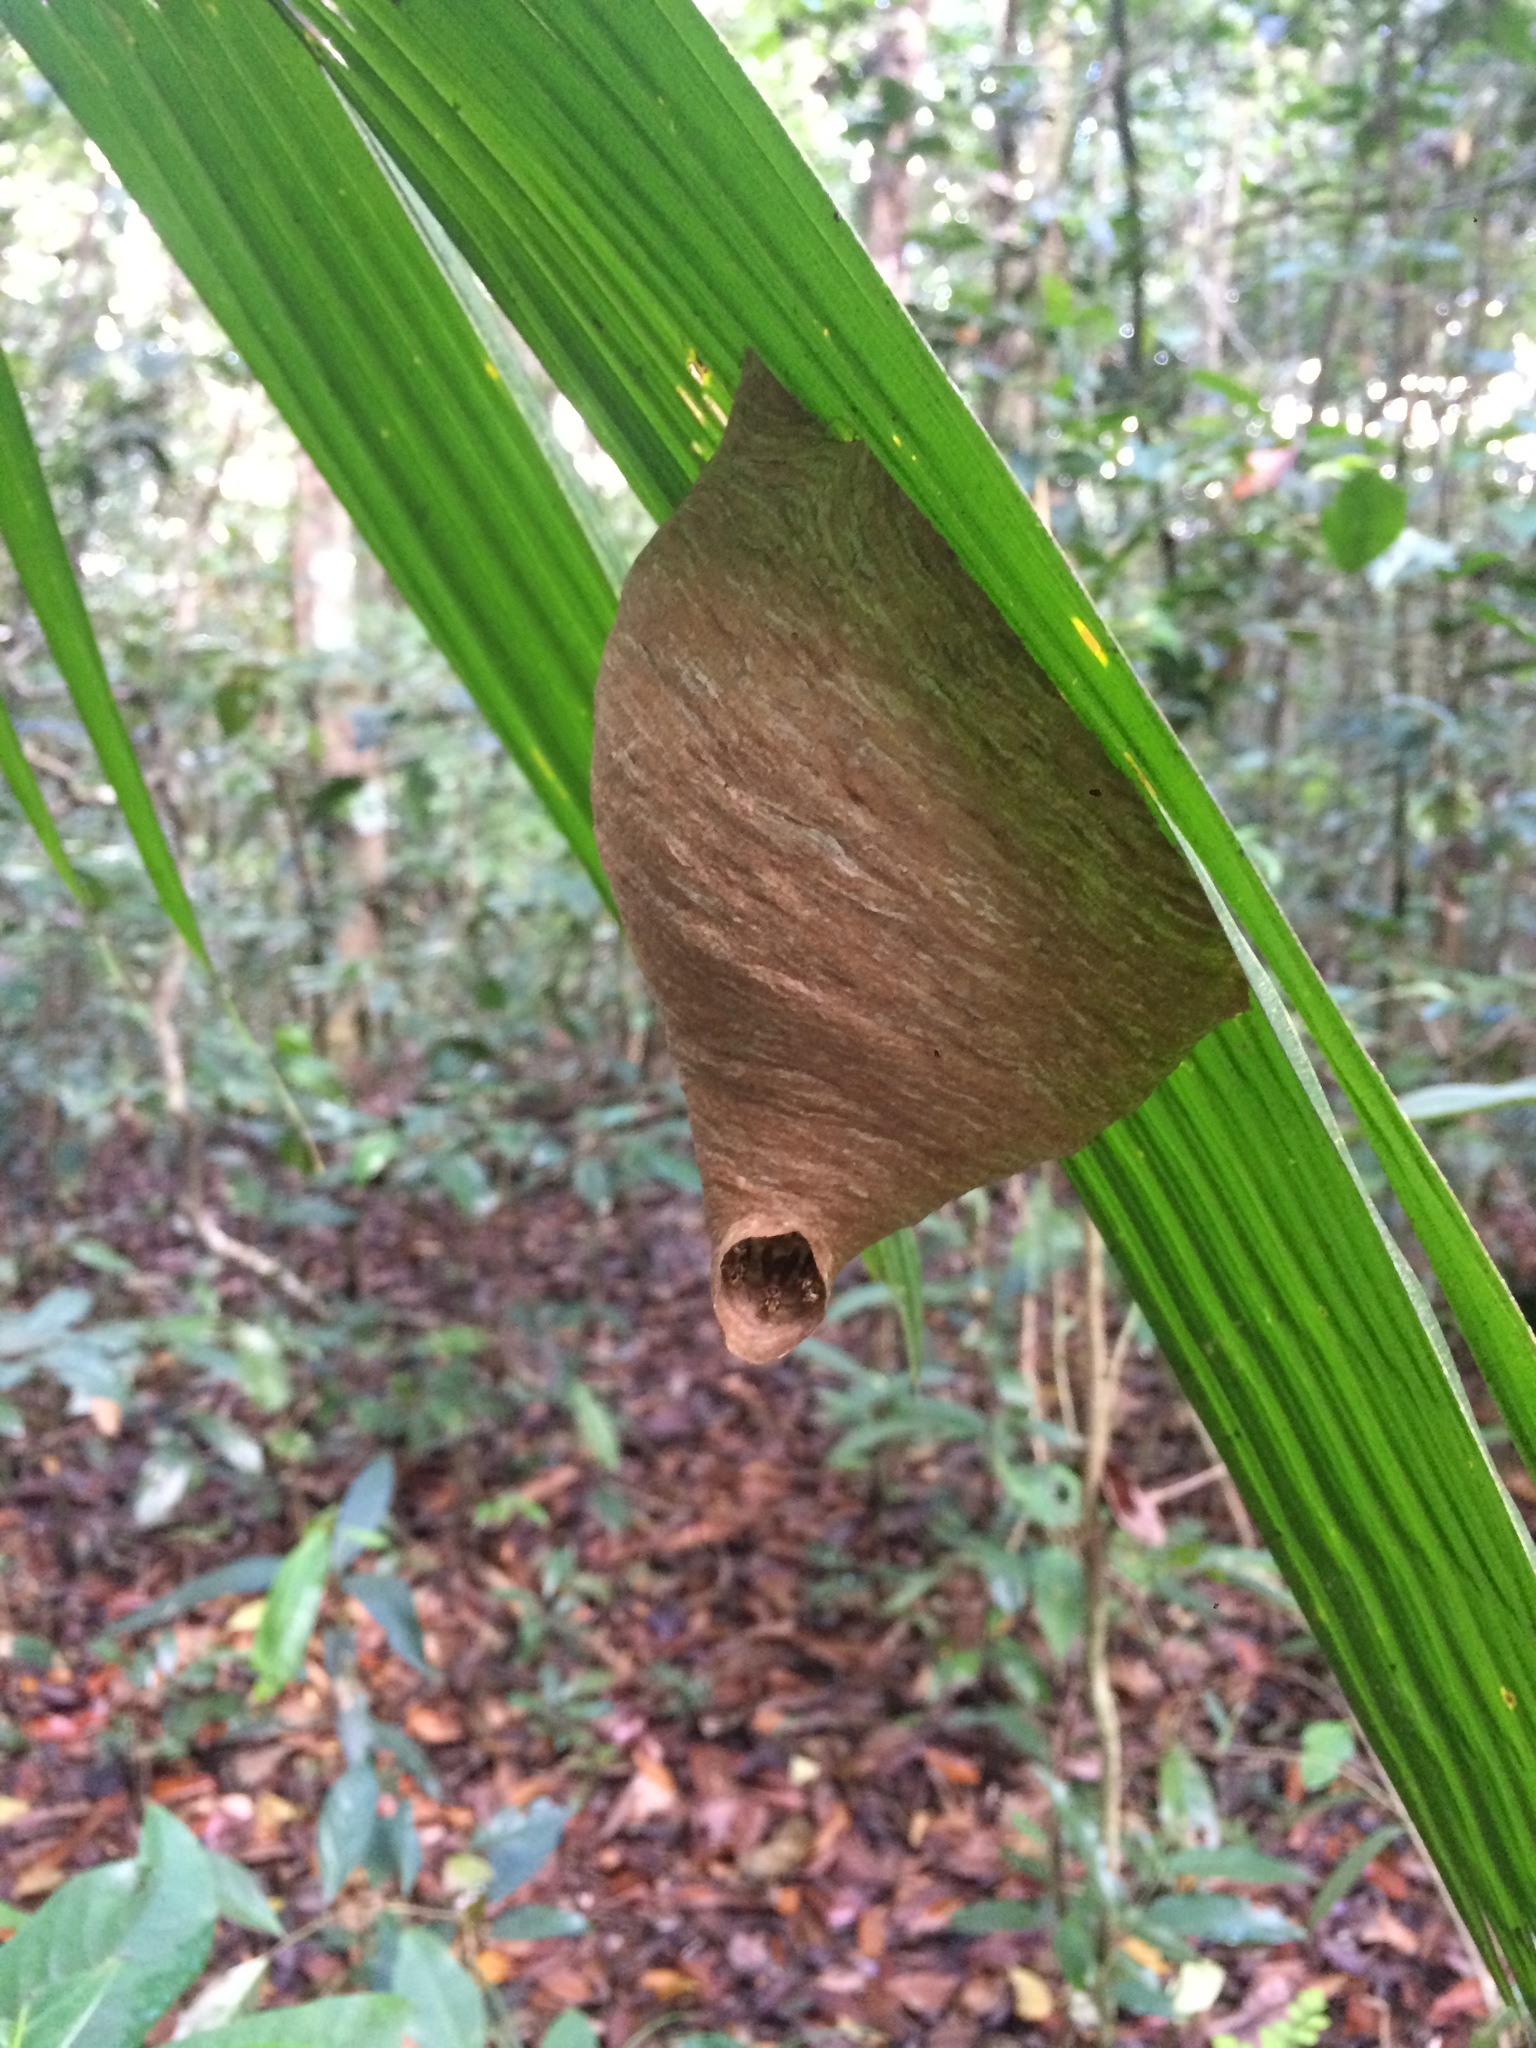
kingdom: Animalia
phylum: Arthropoda
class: Insecta
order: Hymenoptera
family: Vespidae
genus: Angiopolybia
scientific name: Angiopolybia pallens
